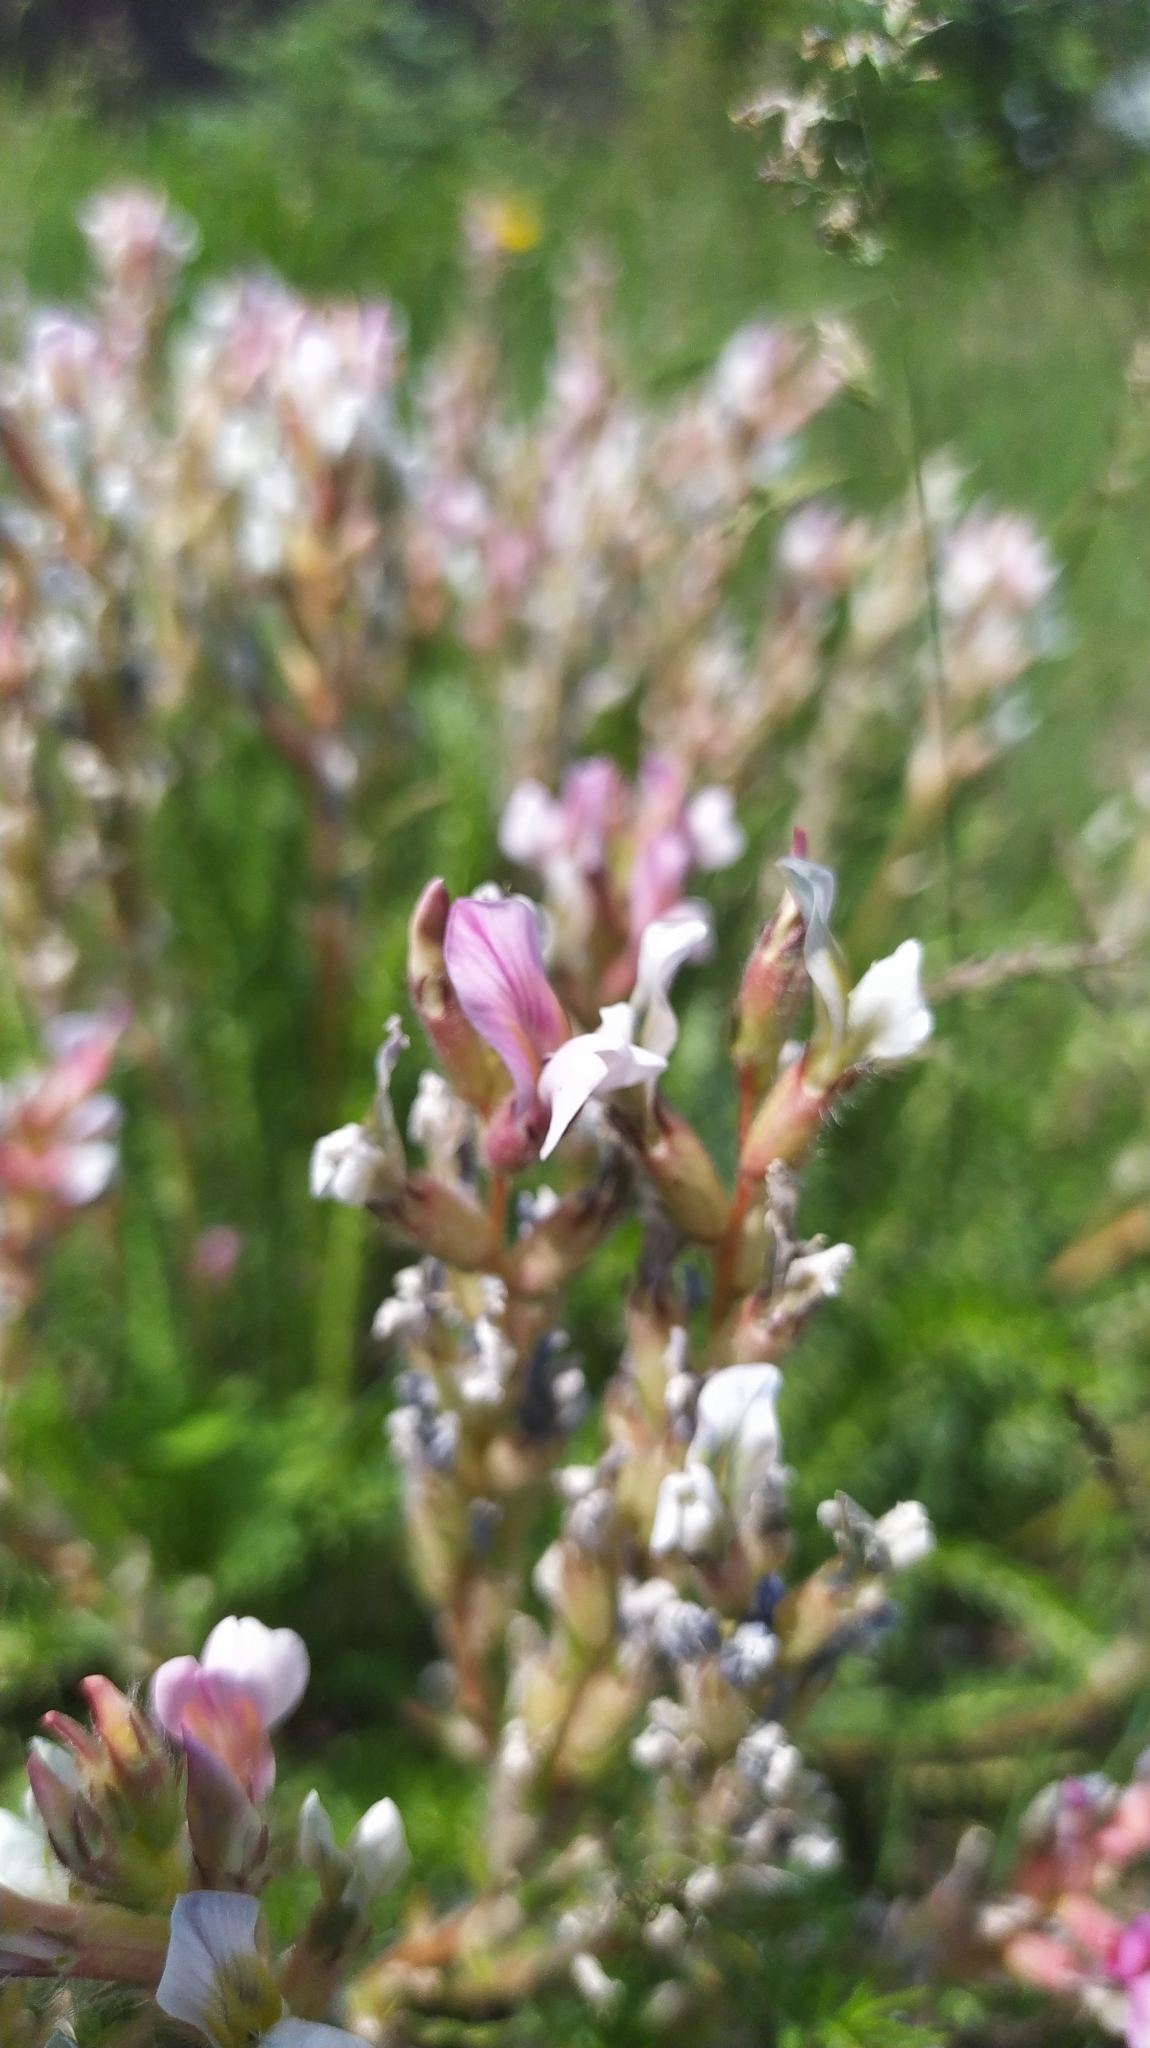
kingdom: Plantae
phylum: Tracheophyta
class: Magnoliopsida
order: Fabales
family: Fabaceae
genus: Oxytropis
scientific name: Oxytropis myriophylla
